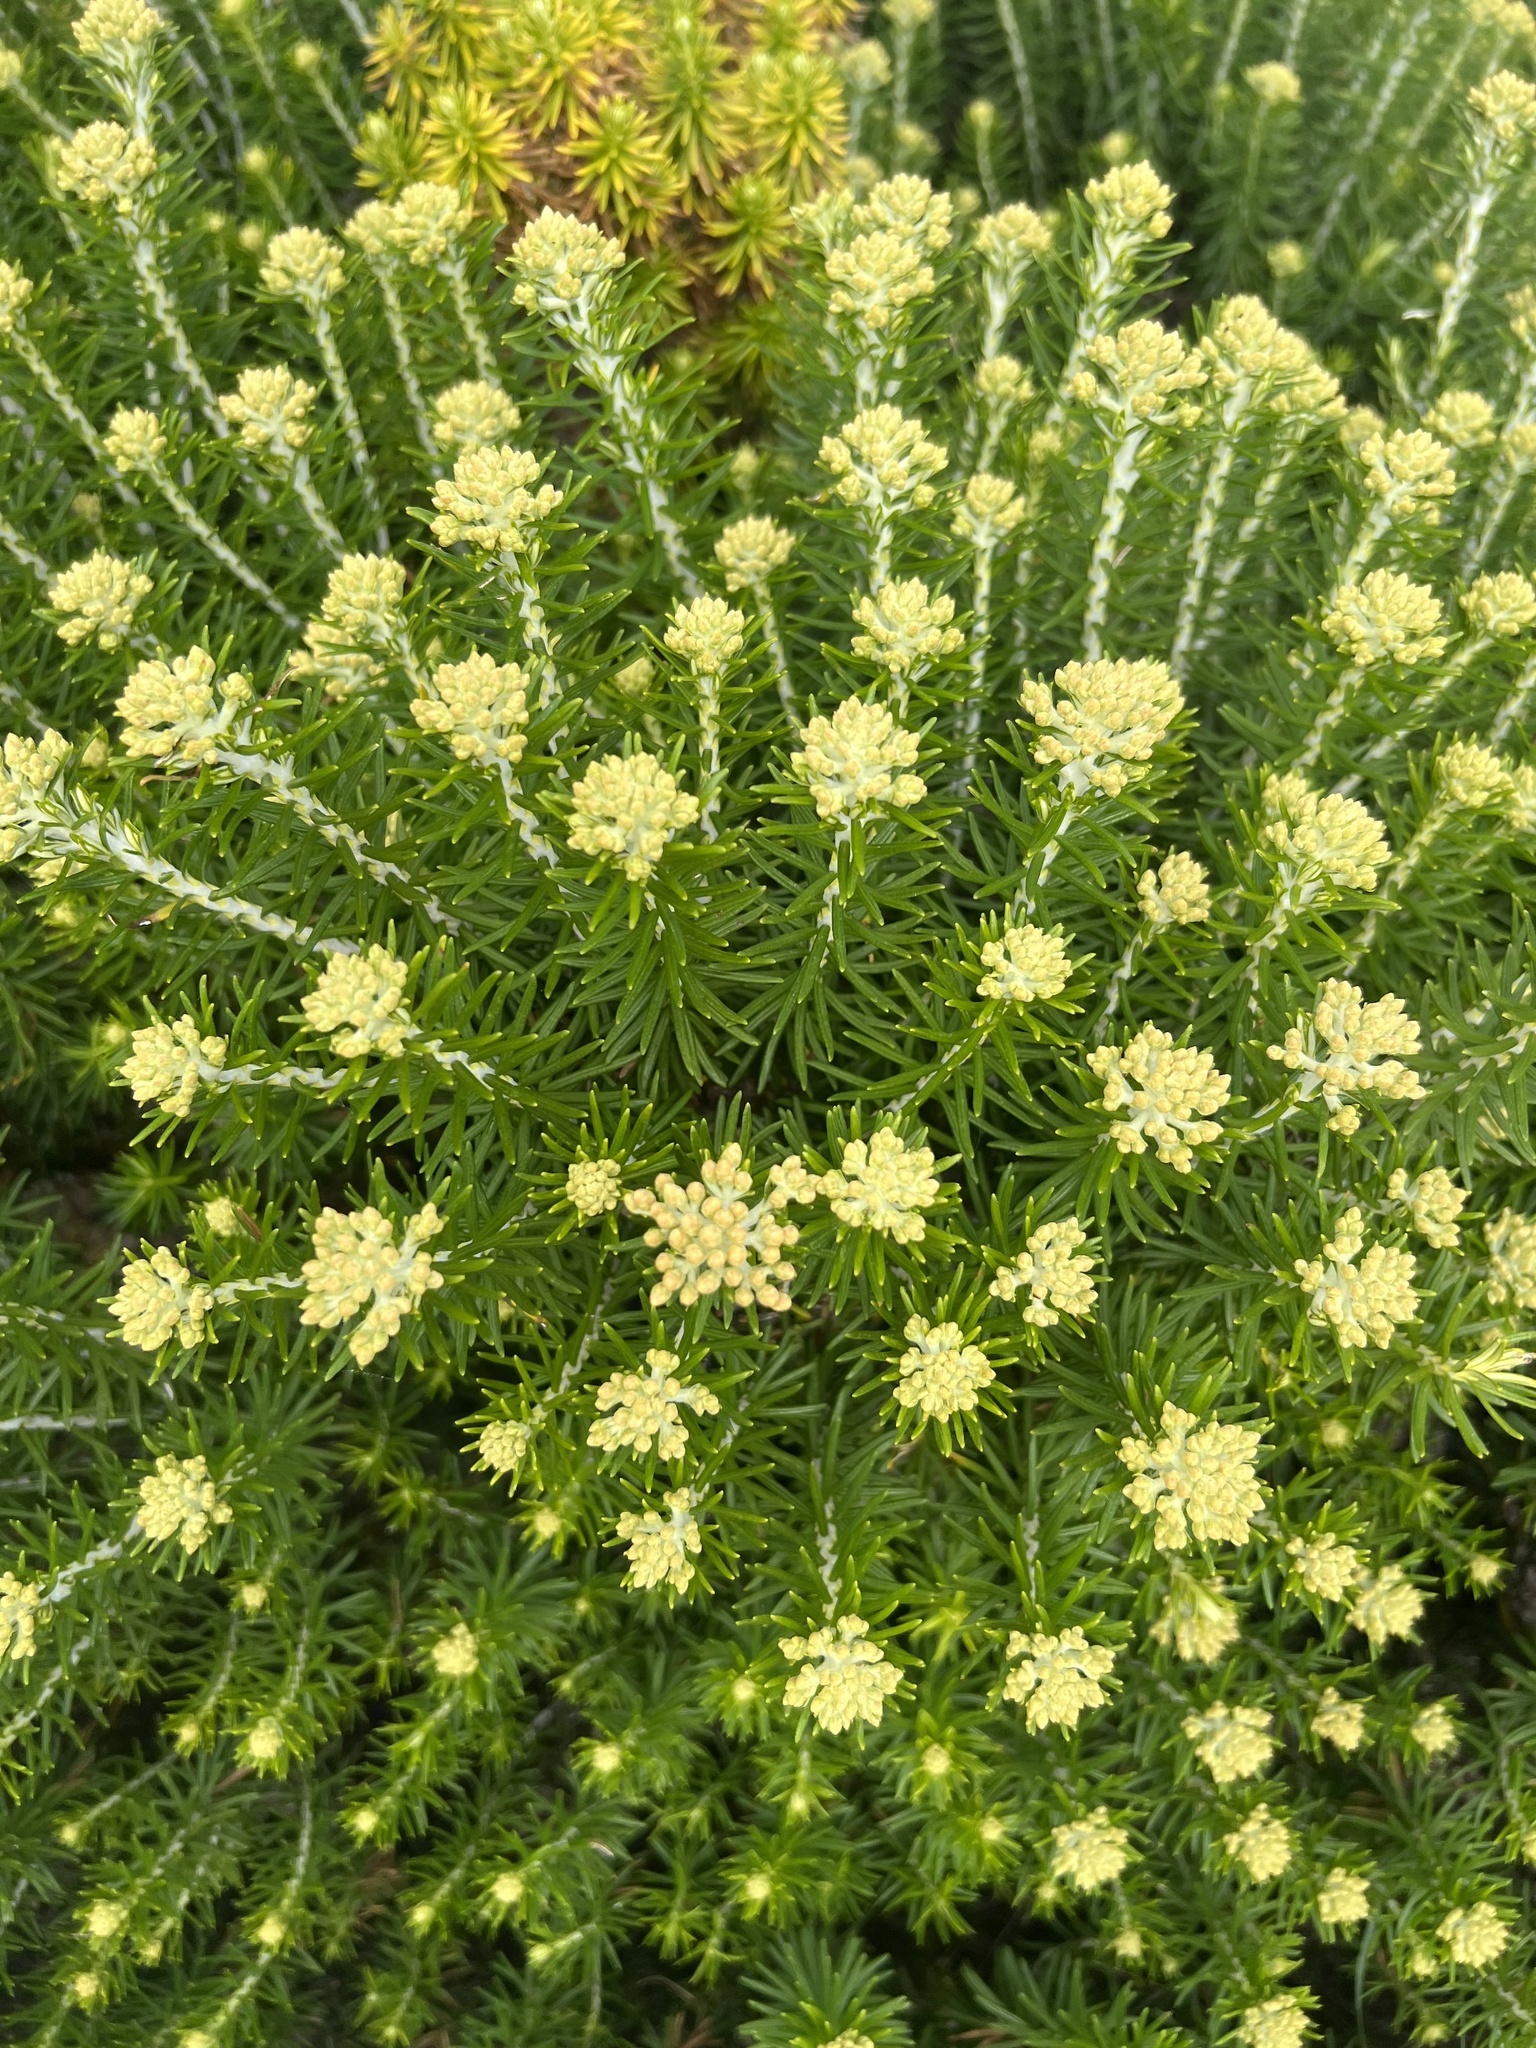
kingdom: Plantae
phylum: Tracheophyta
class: Magnoliopsida
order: Asterales
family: Asteraceae
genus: Ozothamnus
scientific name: Ozothamnus cinereus
